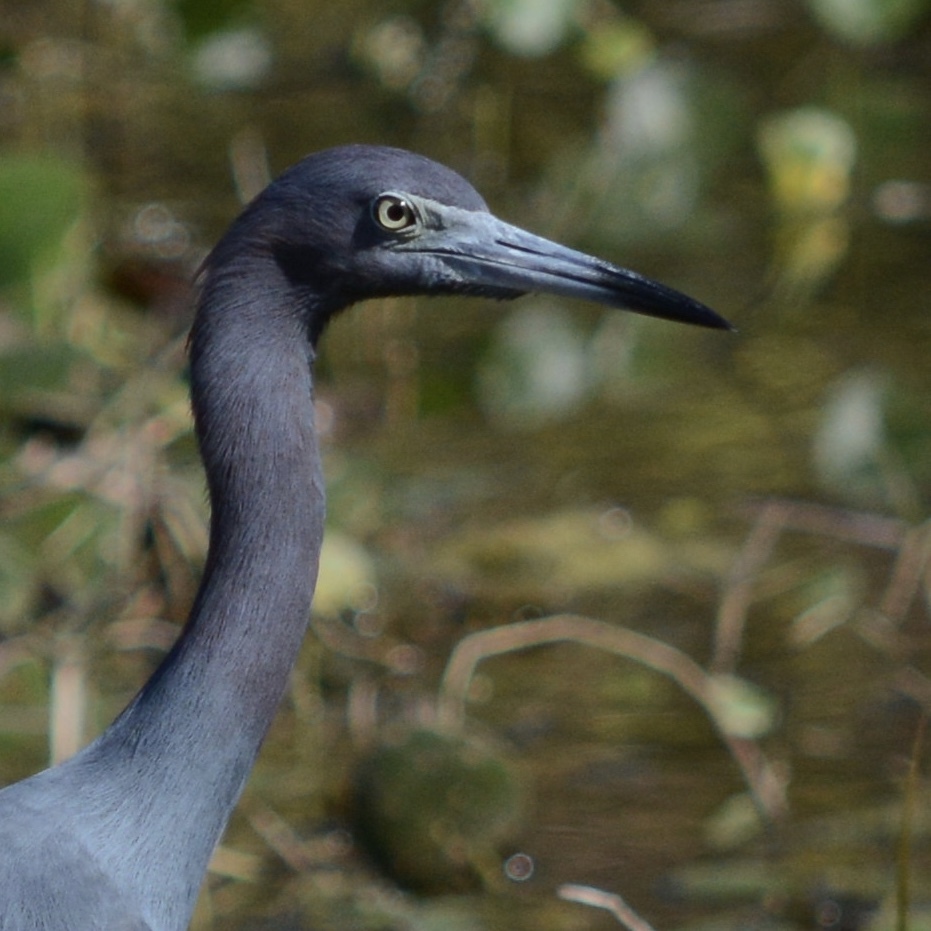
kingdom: Animalia
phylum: Chordata
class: Aves
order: Pelecaniformes
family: Ardeidae
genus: Egretta
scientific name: Egretta caerulea
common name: Little blue heron
